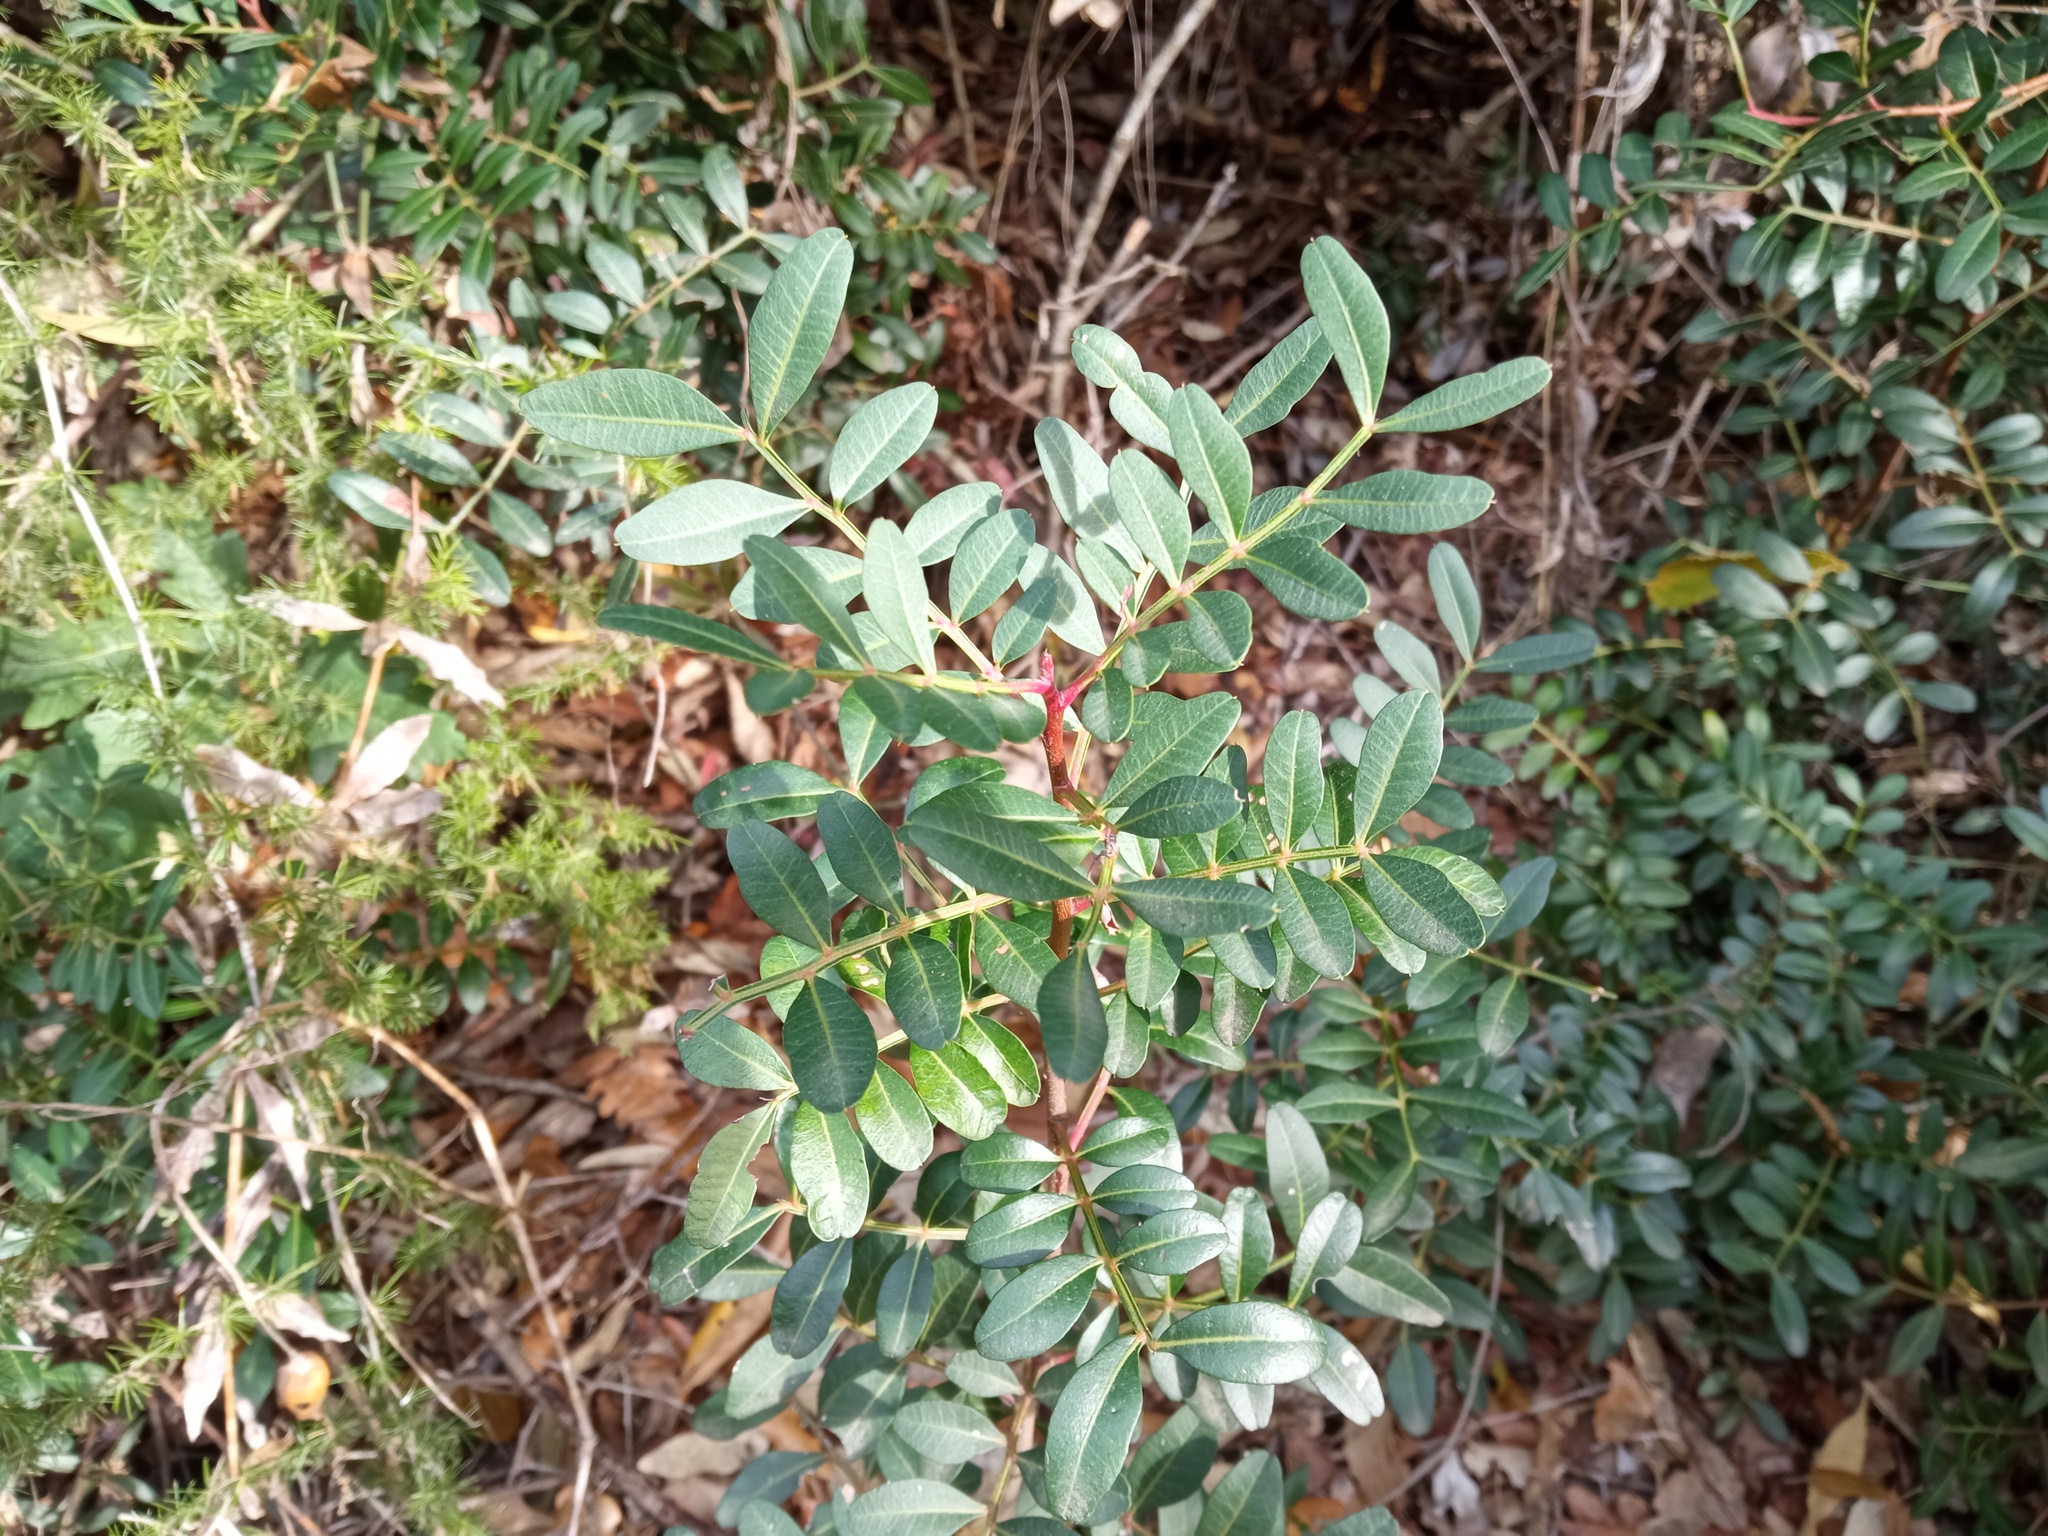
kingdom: Plantae
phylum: Tracheophyta
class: Magnoliopsida
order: Sapindales
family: Anacardiaceae
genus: Pistacia
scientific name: Pistacia lentiscus
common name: Lentisk
